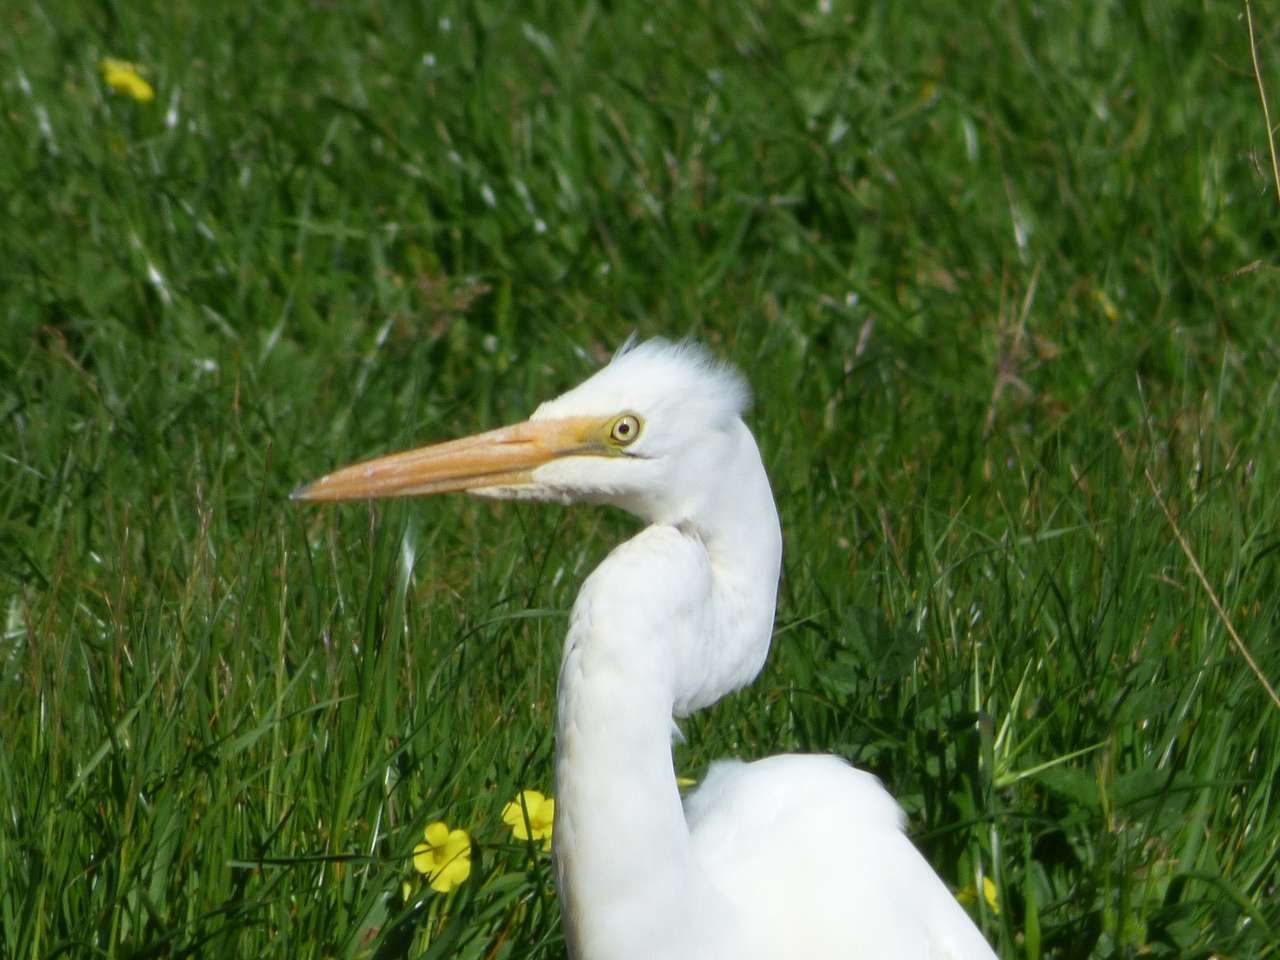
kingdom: Animalia
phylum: Chordata
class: Aves
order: Pelecaniformes
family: Ardeidae
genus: Ardea
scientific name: Ardea modesta
